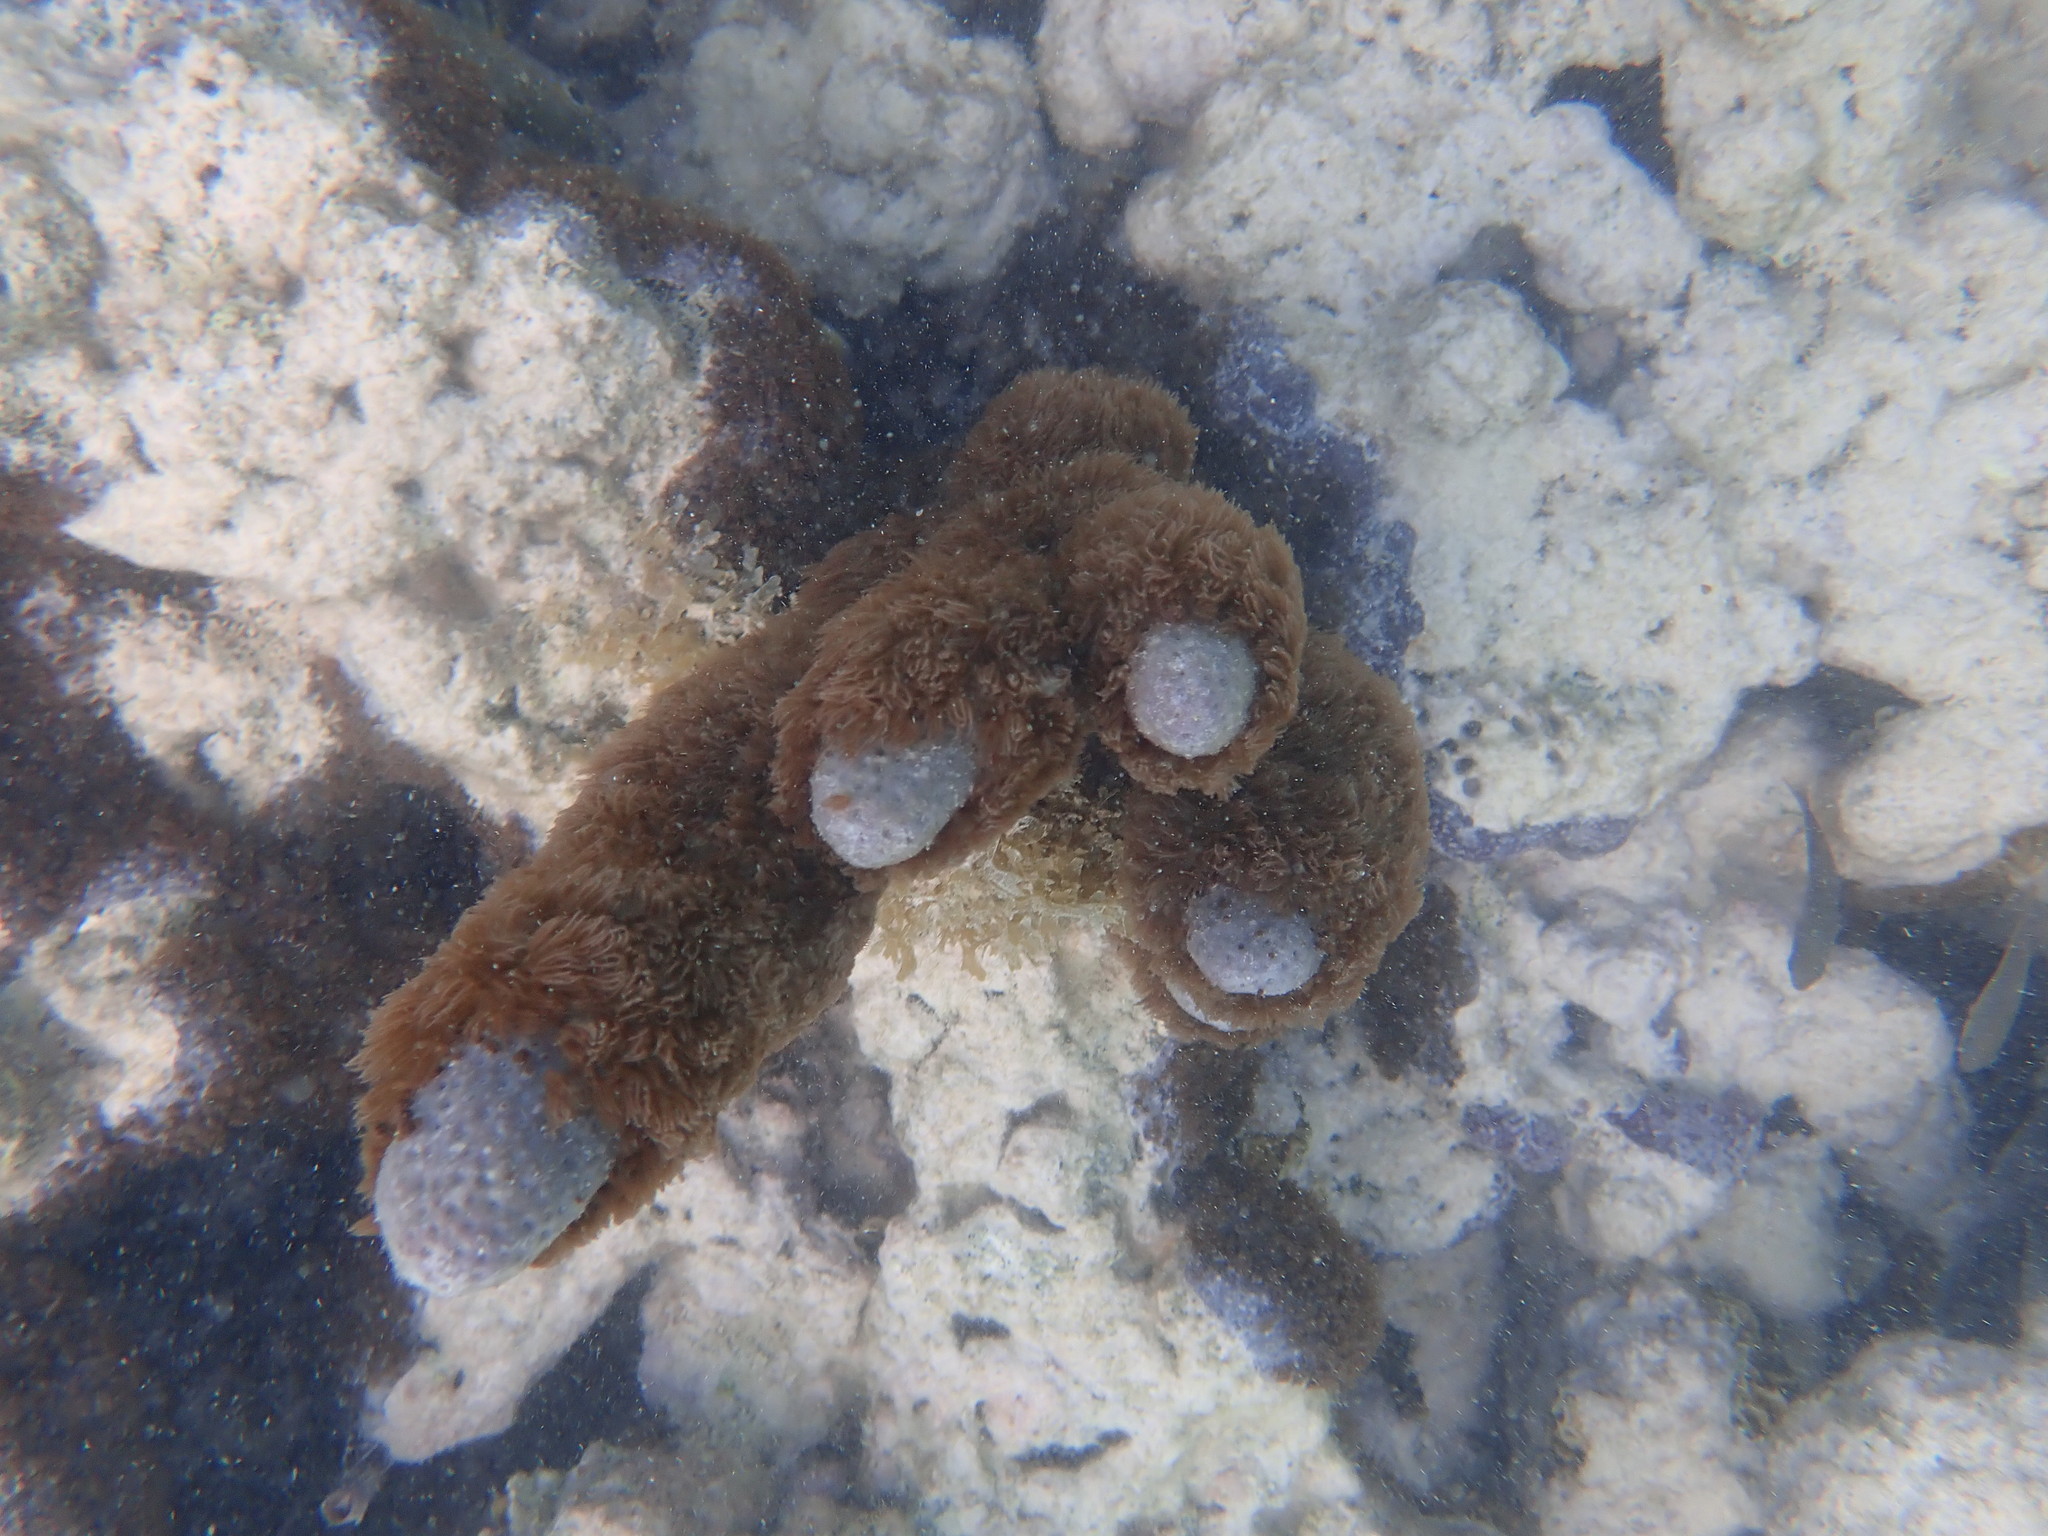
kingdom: Animalia
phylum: Cnidaria
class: Anthozoa
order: Scleralcyonacea
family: Briareidae
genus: Briareum
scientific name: Briareum asbestinum
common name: Corky sea finger
